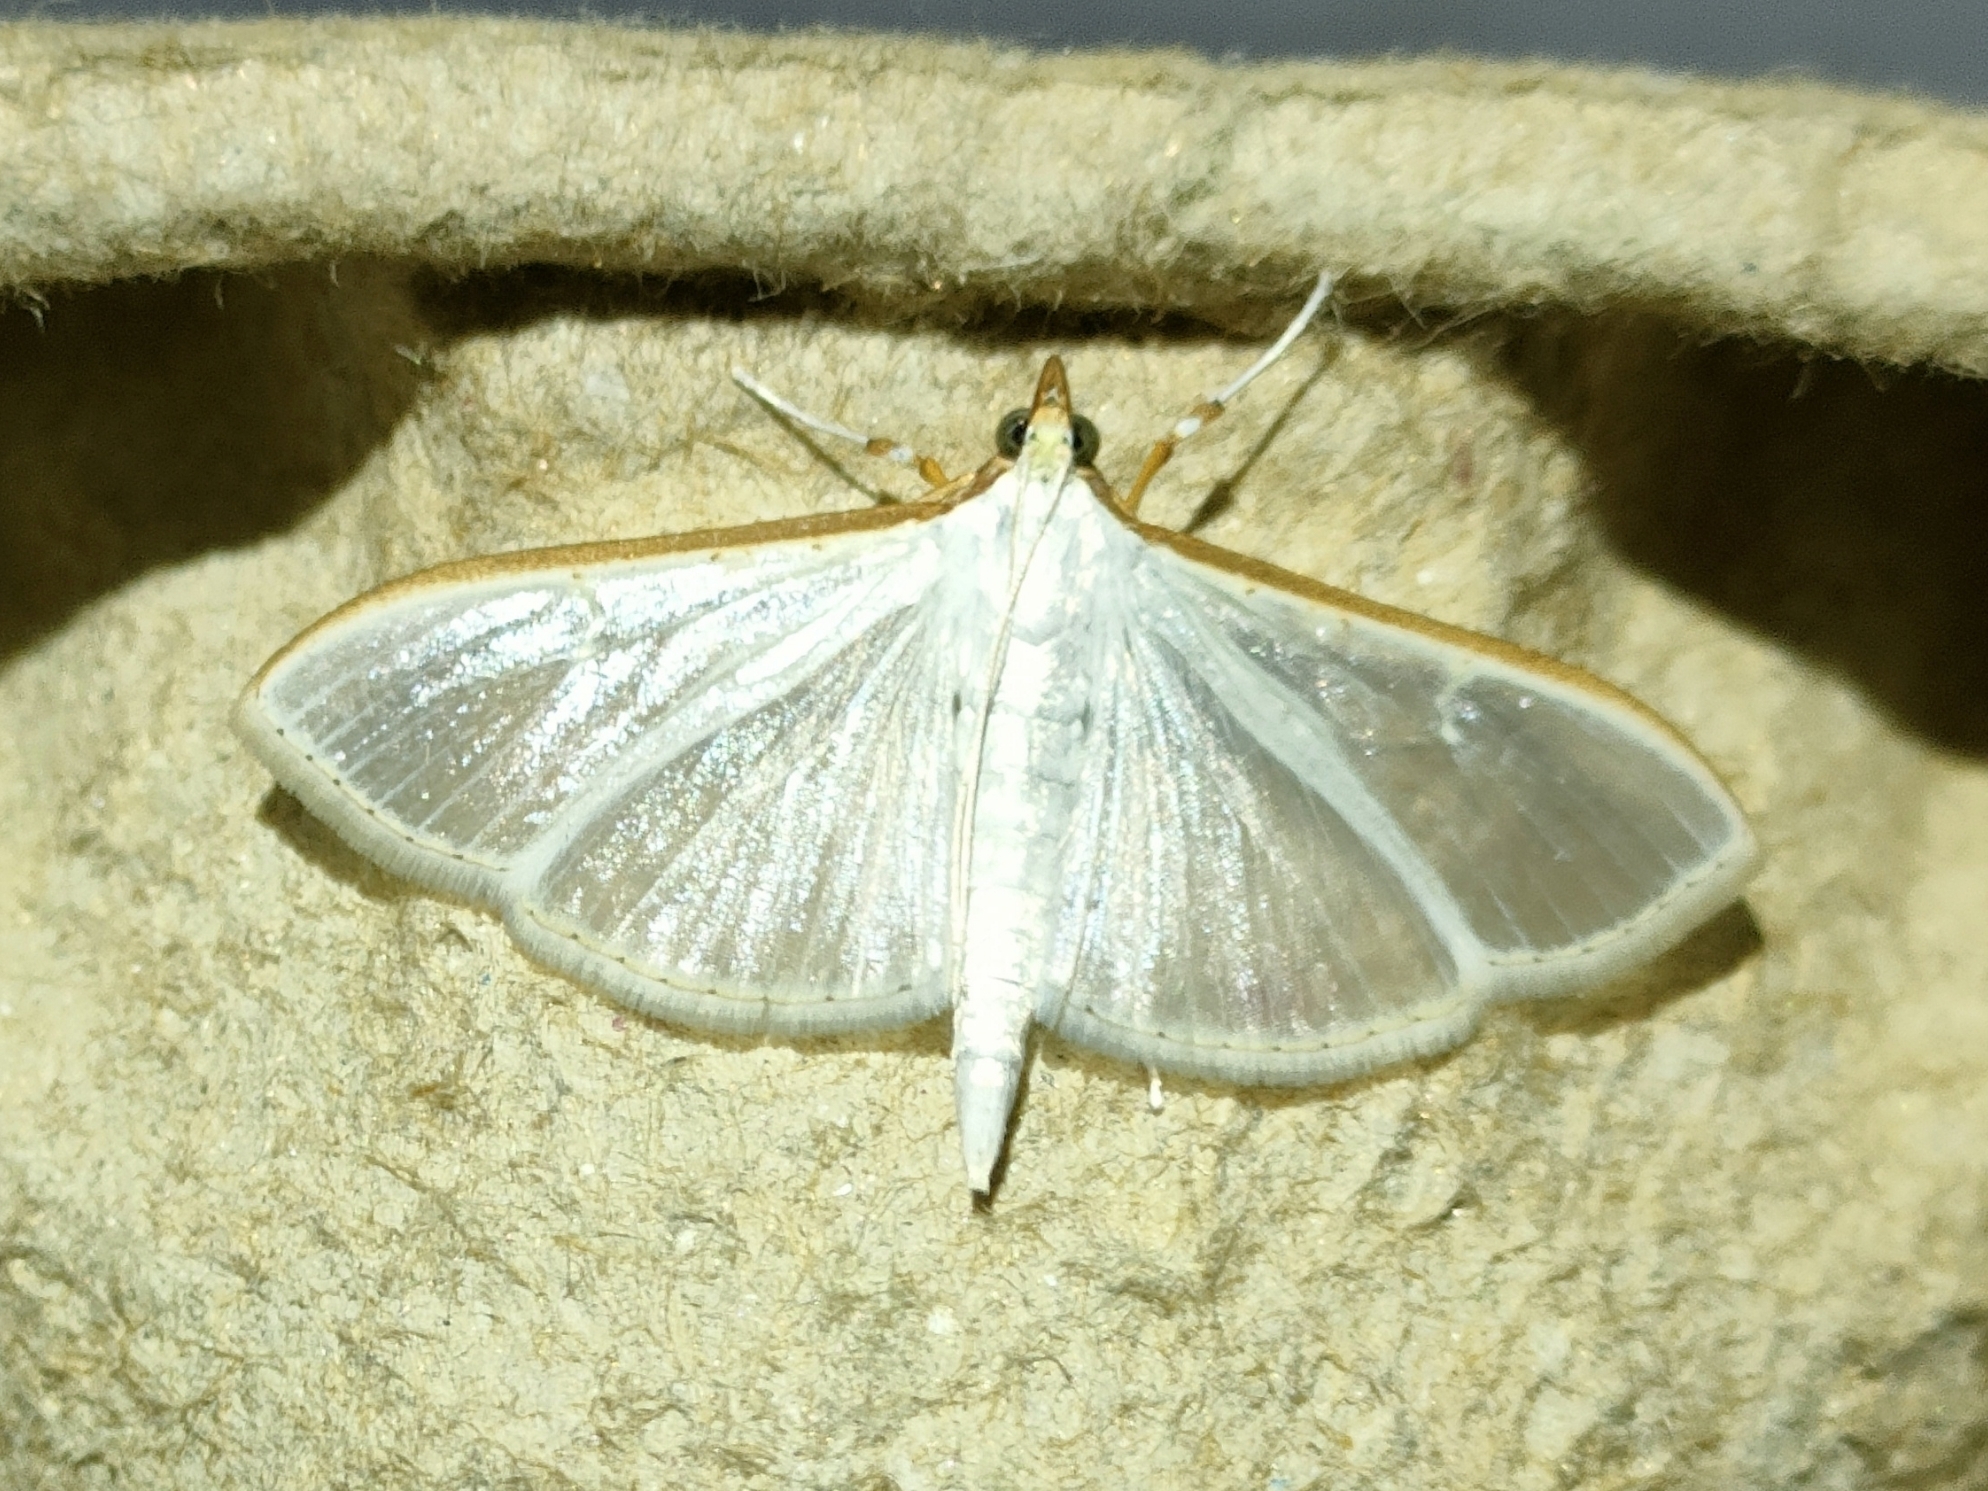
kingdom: Animalia
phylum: Arthropoda
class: Insecta
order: Lepidoptera
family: Crambidae
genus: Palpita
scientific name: Palpita vitrealis
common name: Olive-tree pearl
